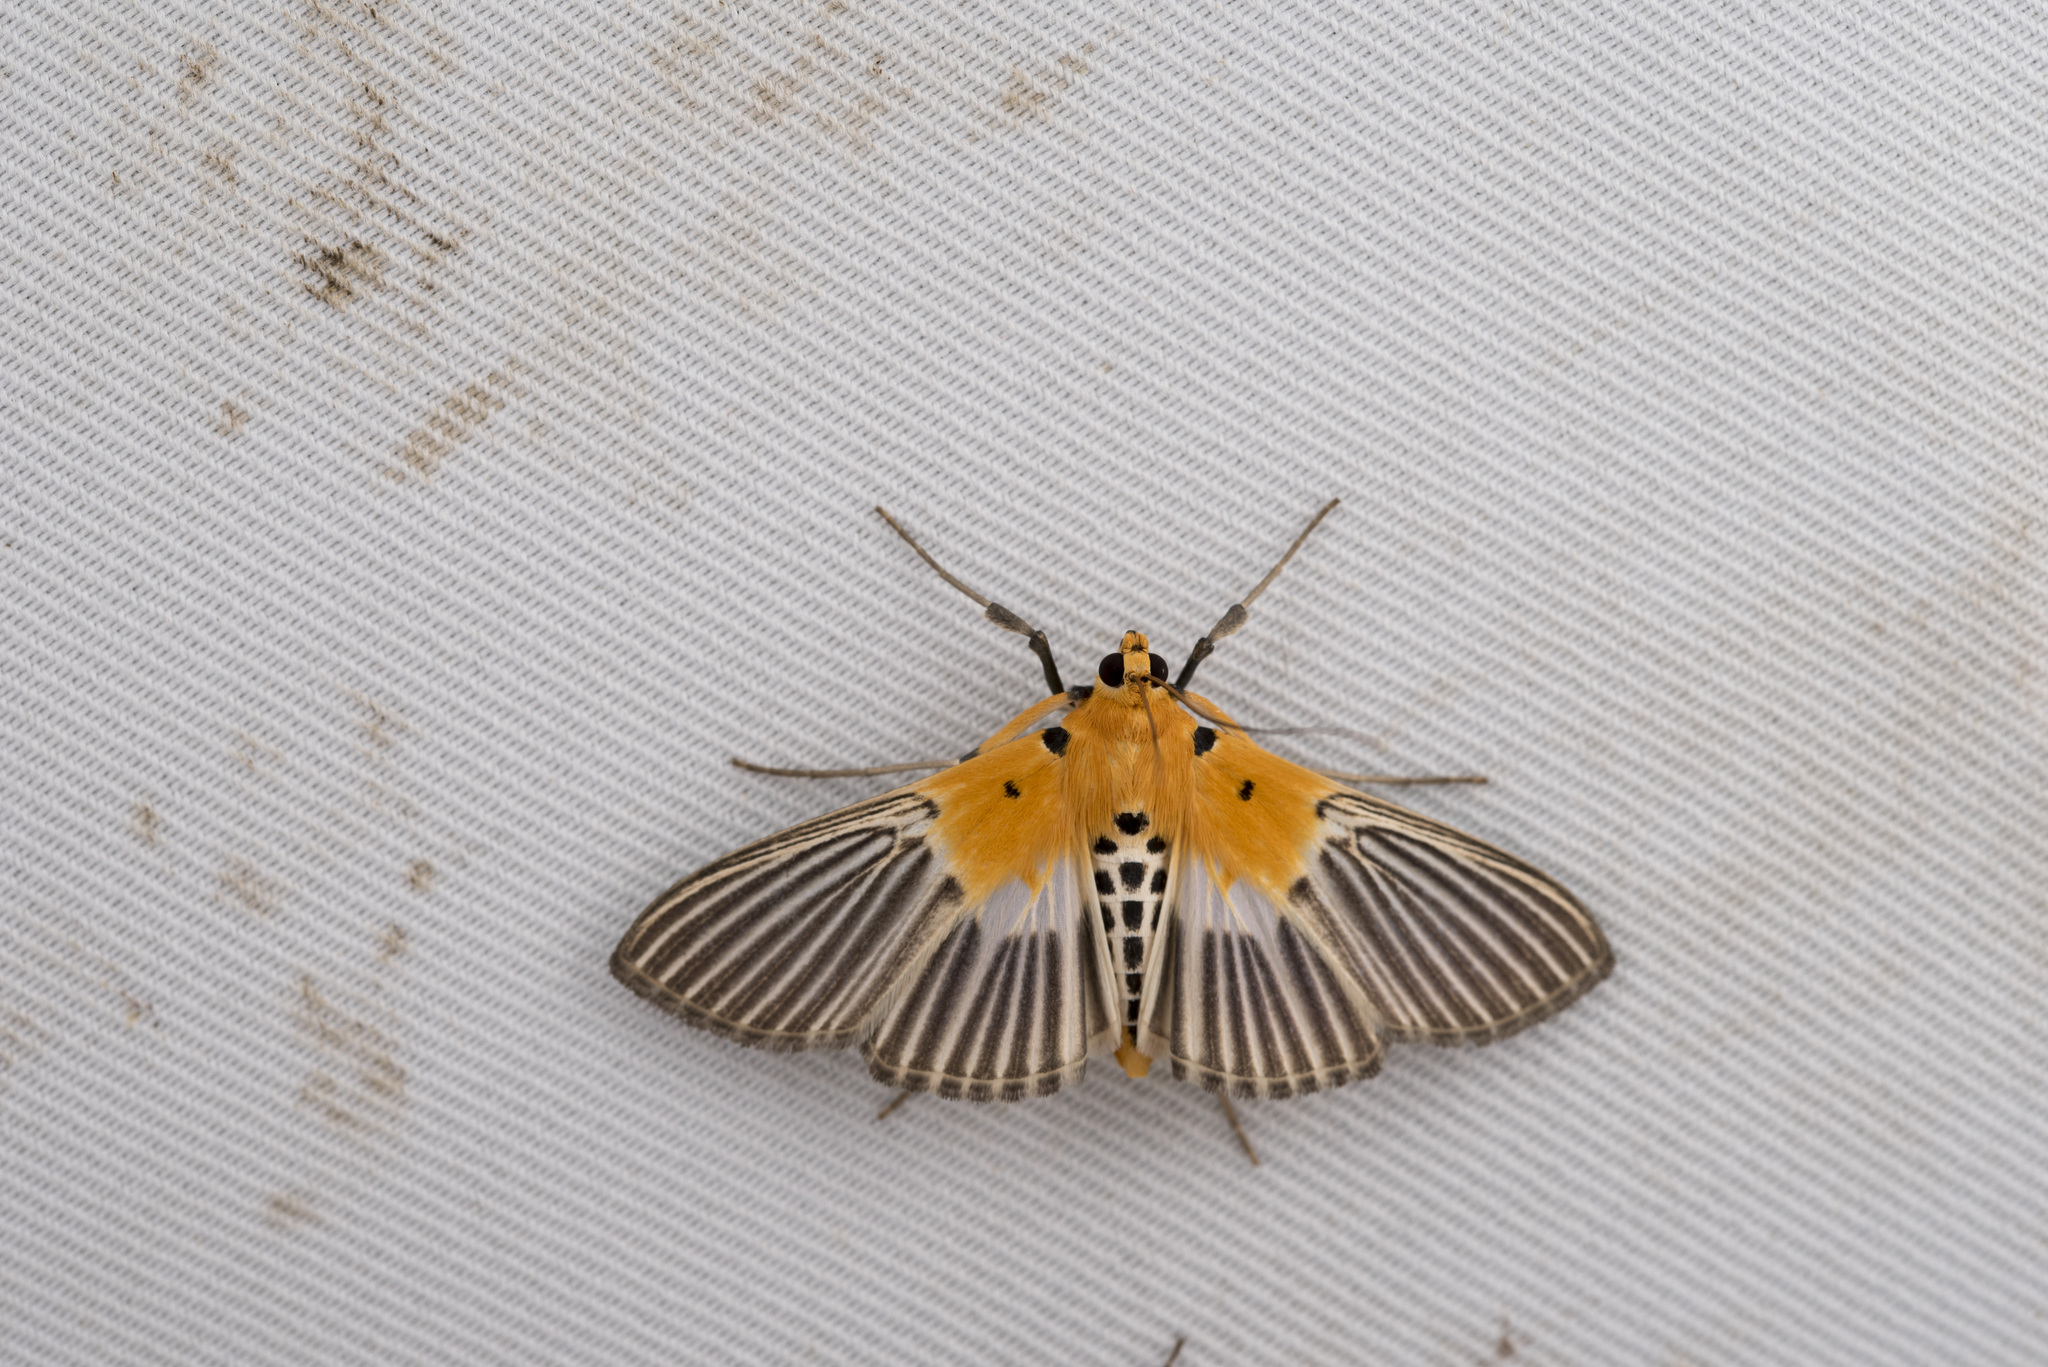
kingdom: Animalia
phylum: Arthropoda
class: Insecta
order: Lepidoptera
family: Crambidae
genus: Nevrina
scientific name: Nevrina procopia
